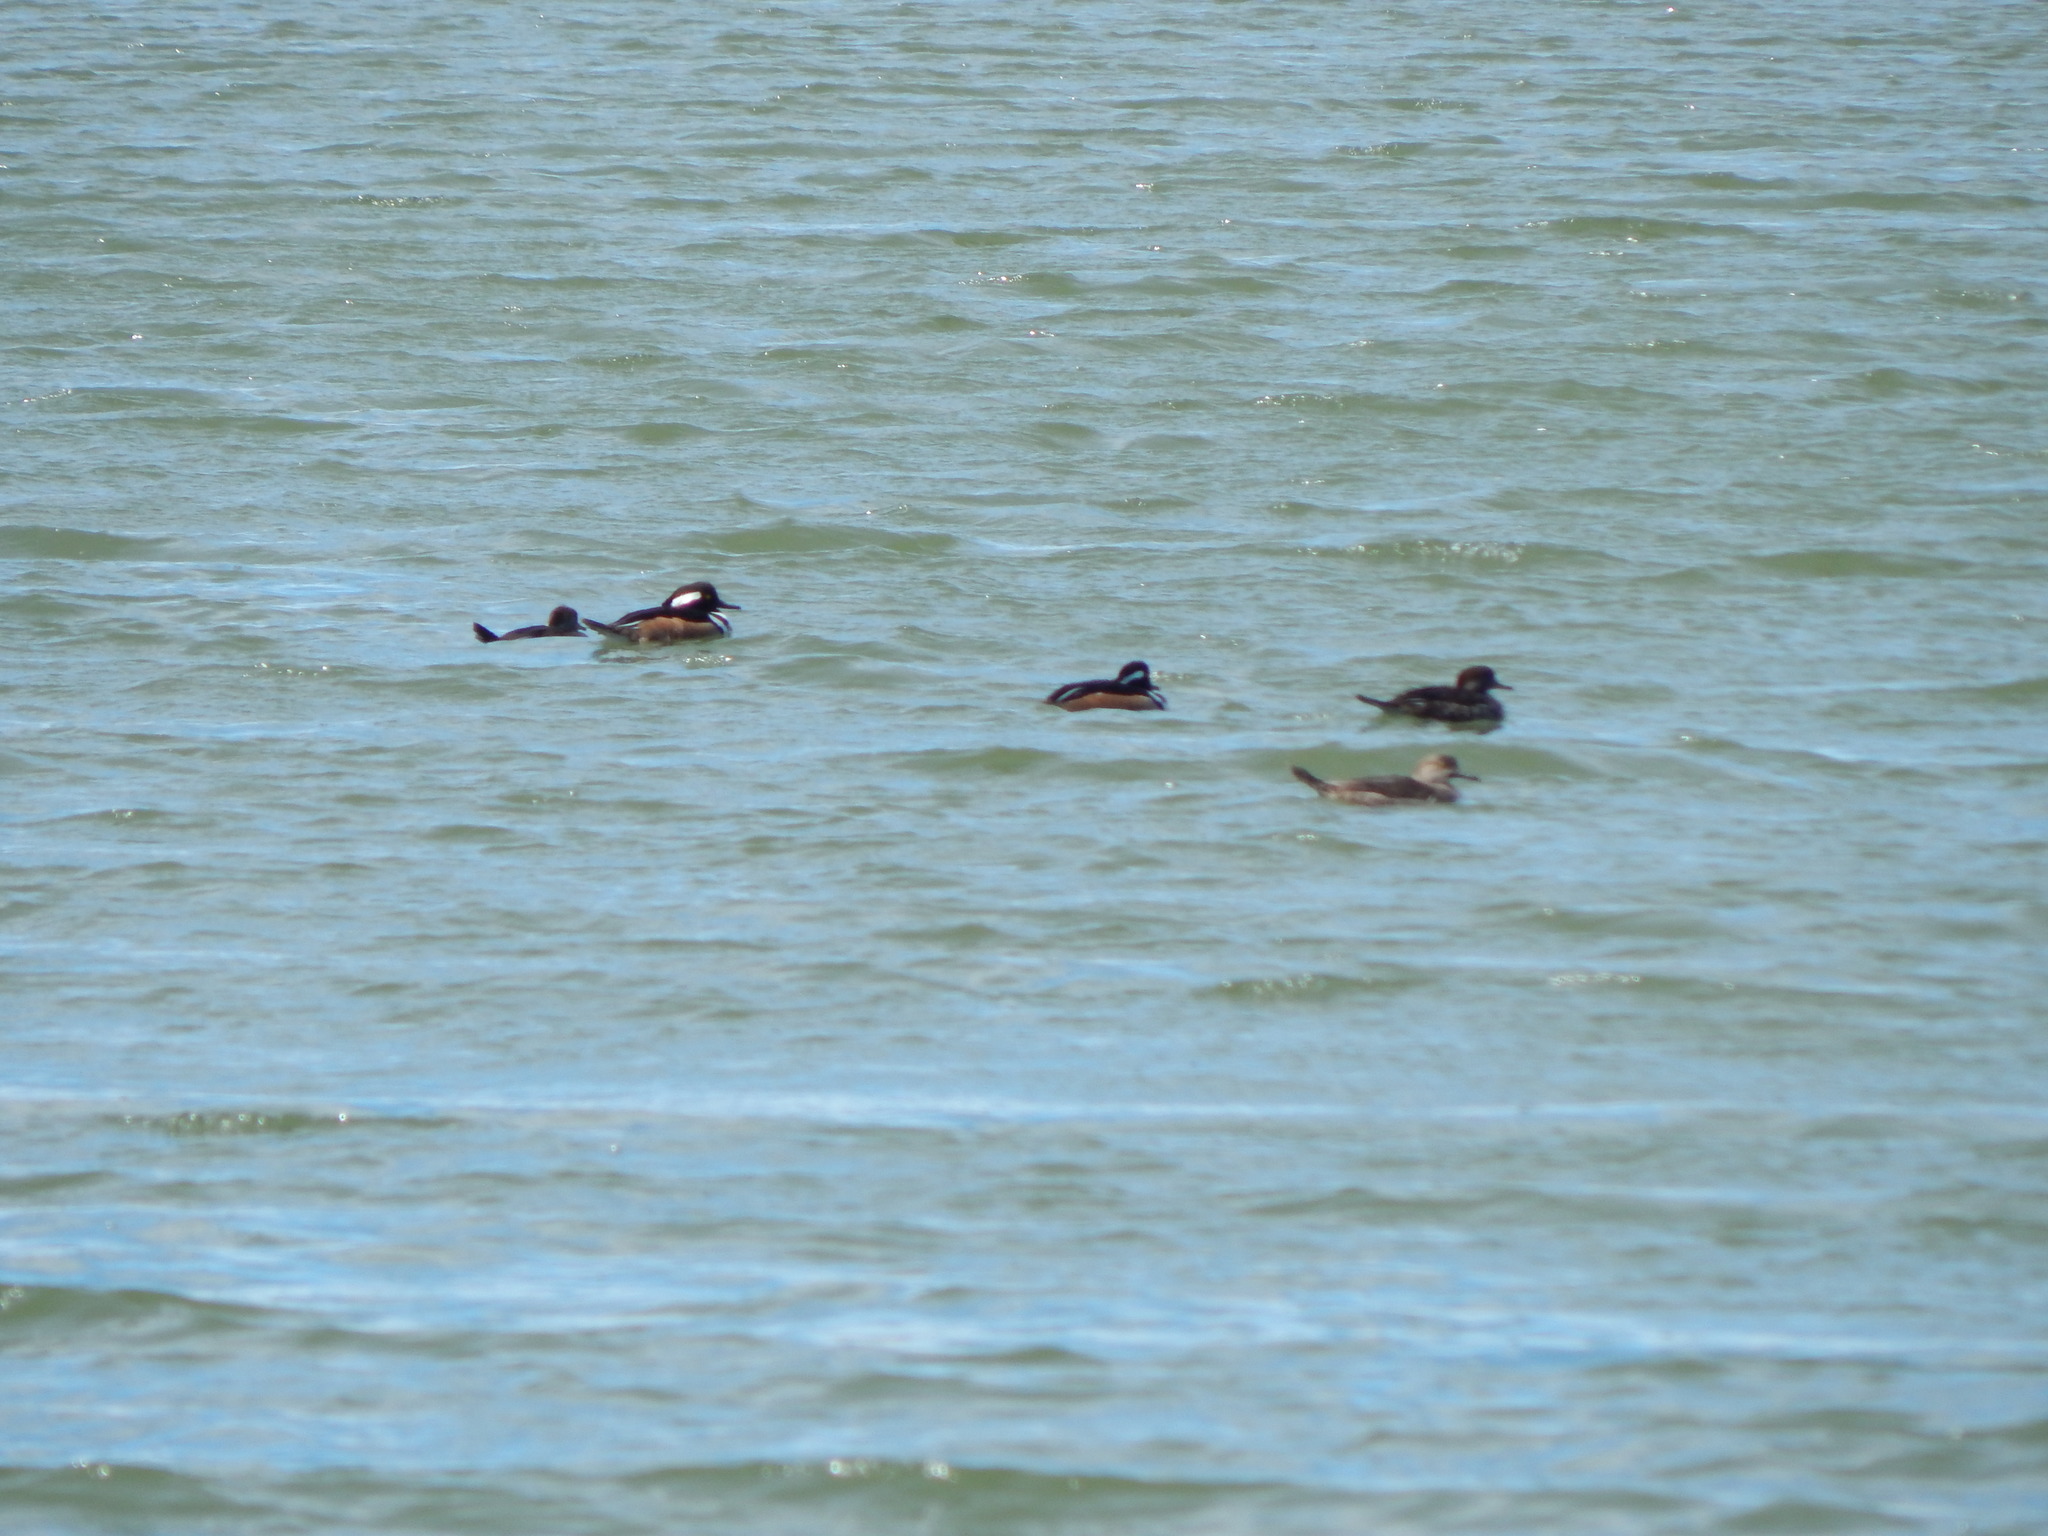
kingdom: Animalia
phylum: Chordata
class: Aves
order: Anseriformes
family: Anatidae
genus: Lophodytes
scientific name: Lophodytes cucullatus
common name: Hooded merganser
